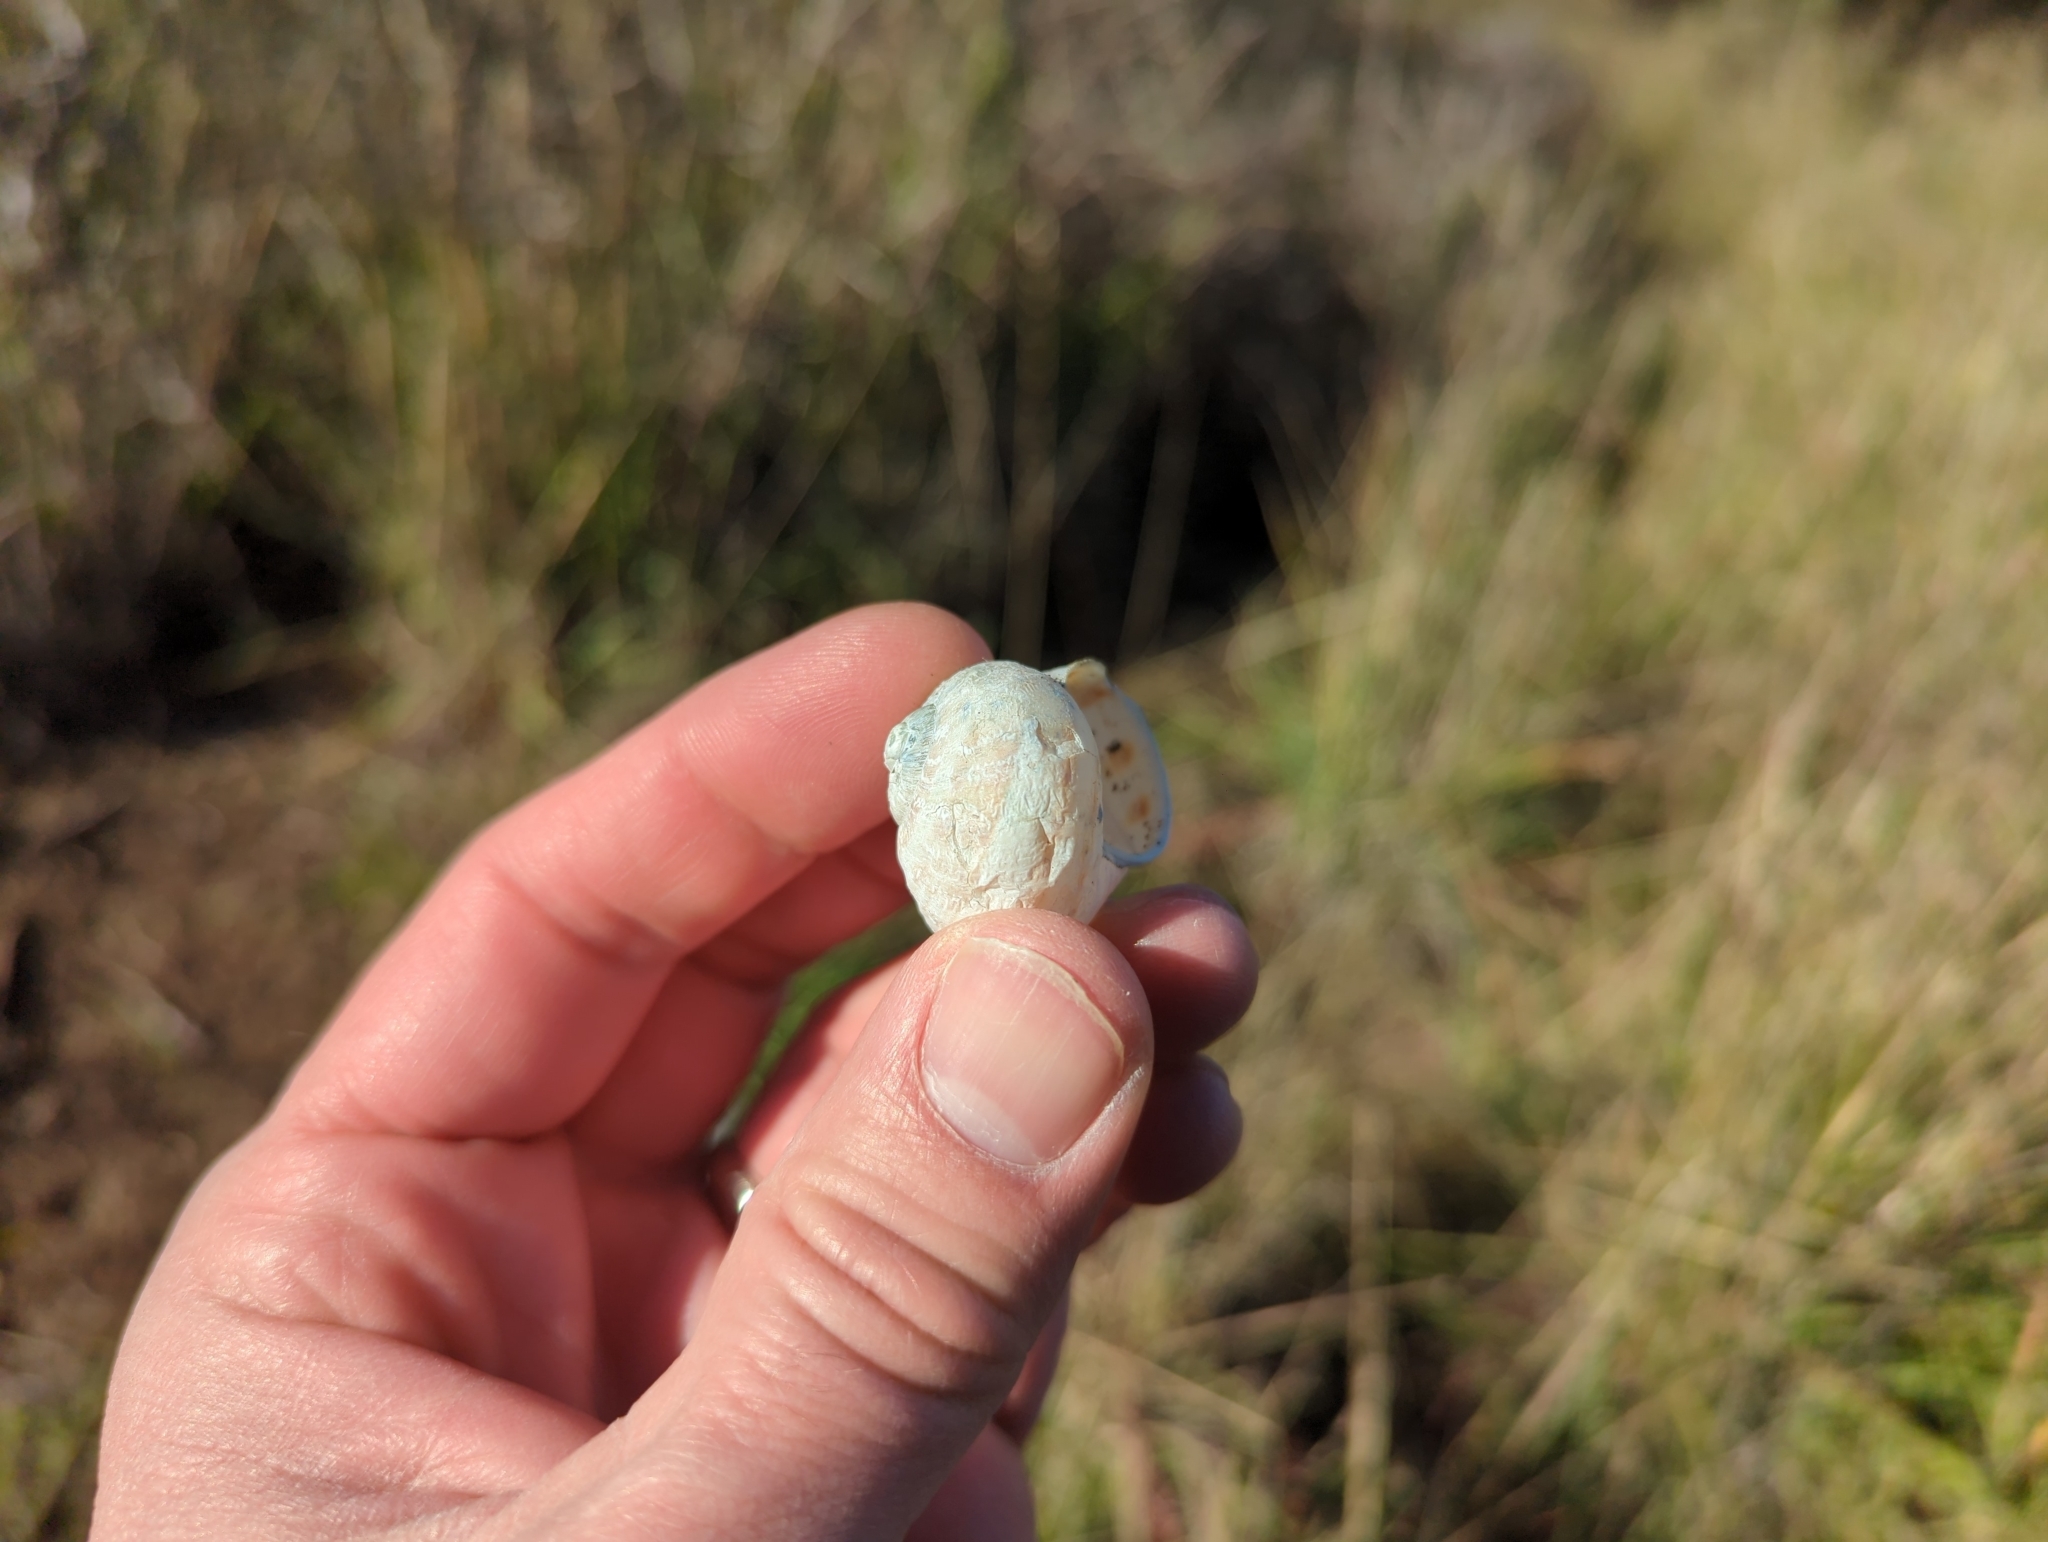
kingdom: Animalia
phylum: Mollusca
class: Gastropoda
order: Stylommatophora
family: Helicidae
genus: Cornu
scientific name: Cornu aspersum
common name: Brown garden snail
